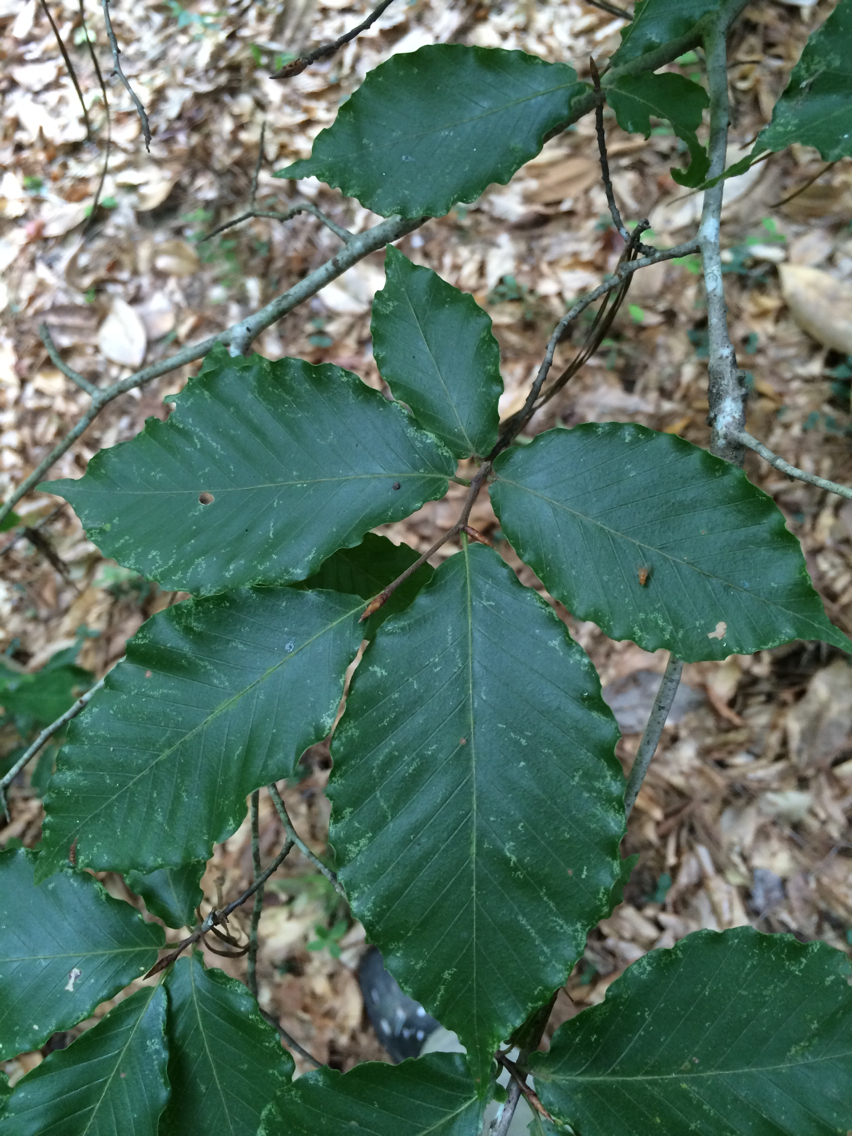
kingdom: Plantae
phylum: Tracheophyta
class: Magnoliopsida
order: Fagales
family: Fagaceae
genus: Fagus
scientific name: Fagus grandifolia
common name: American beech
